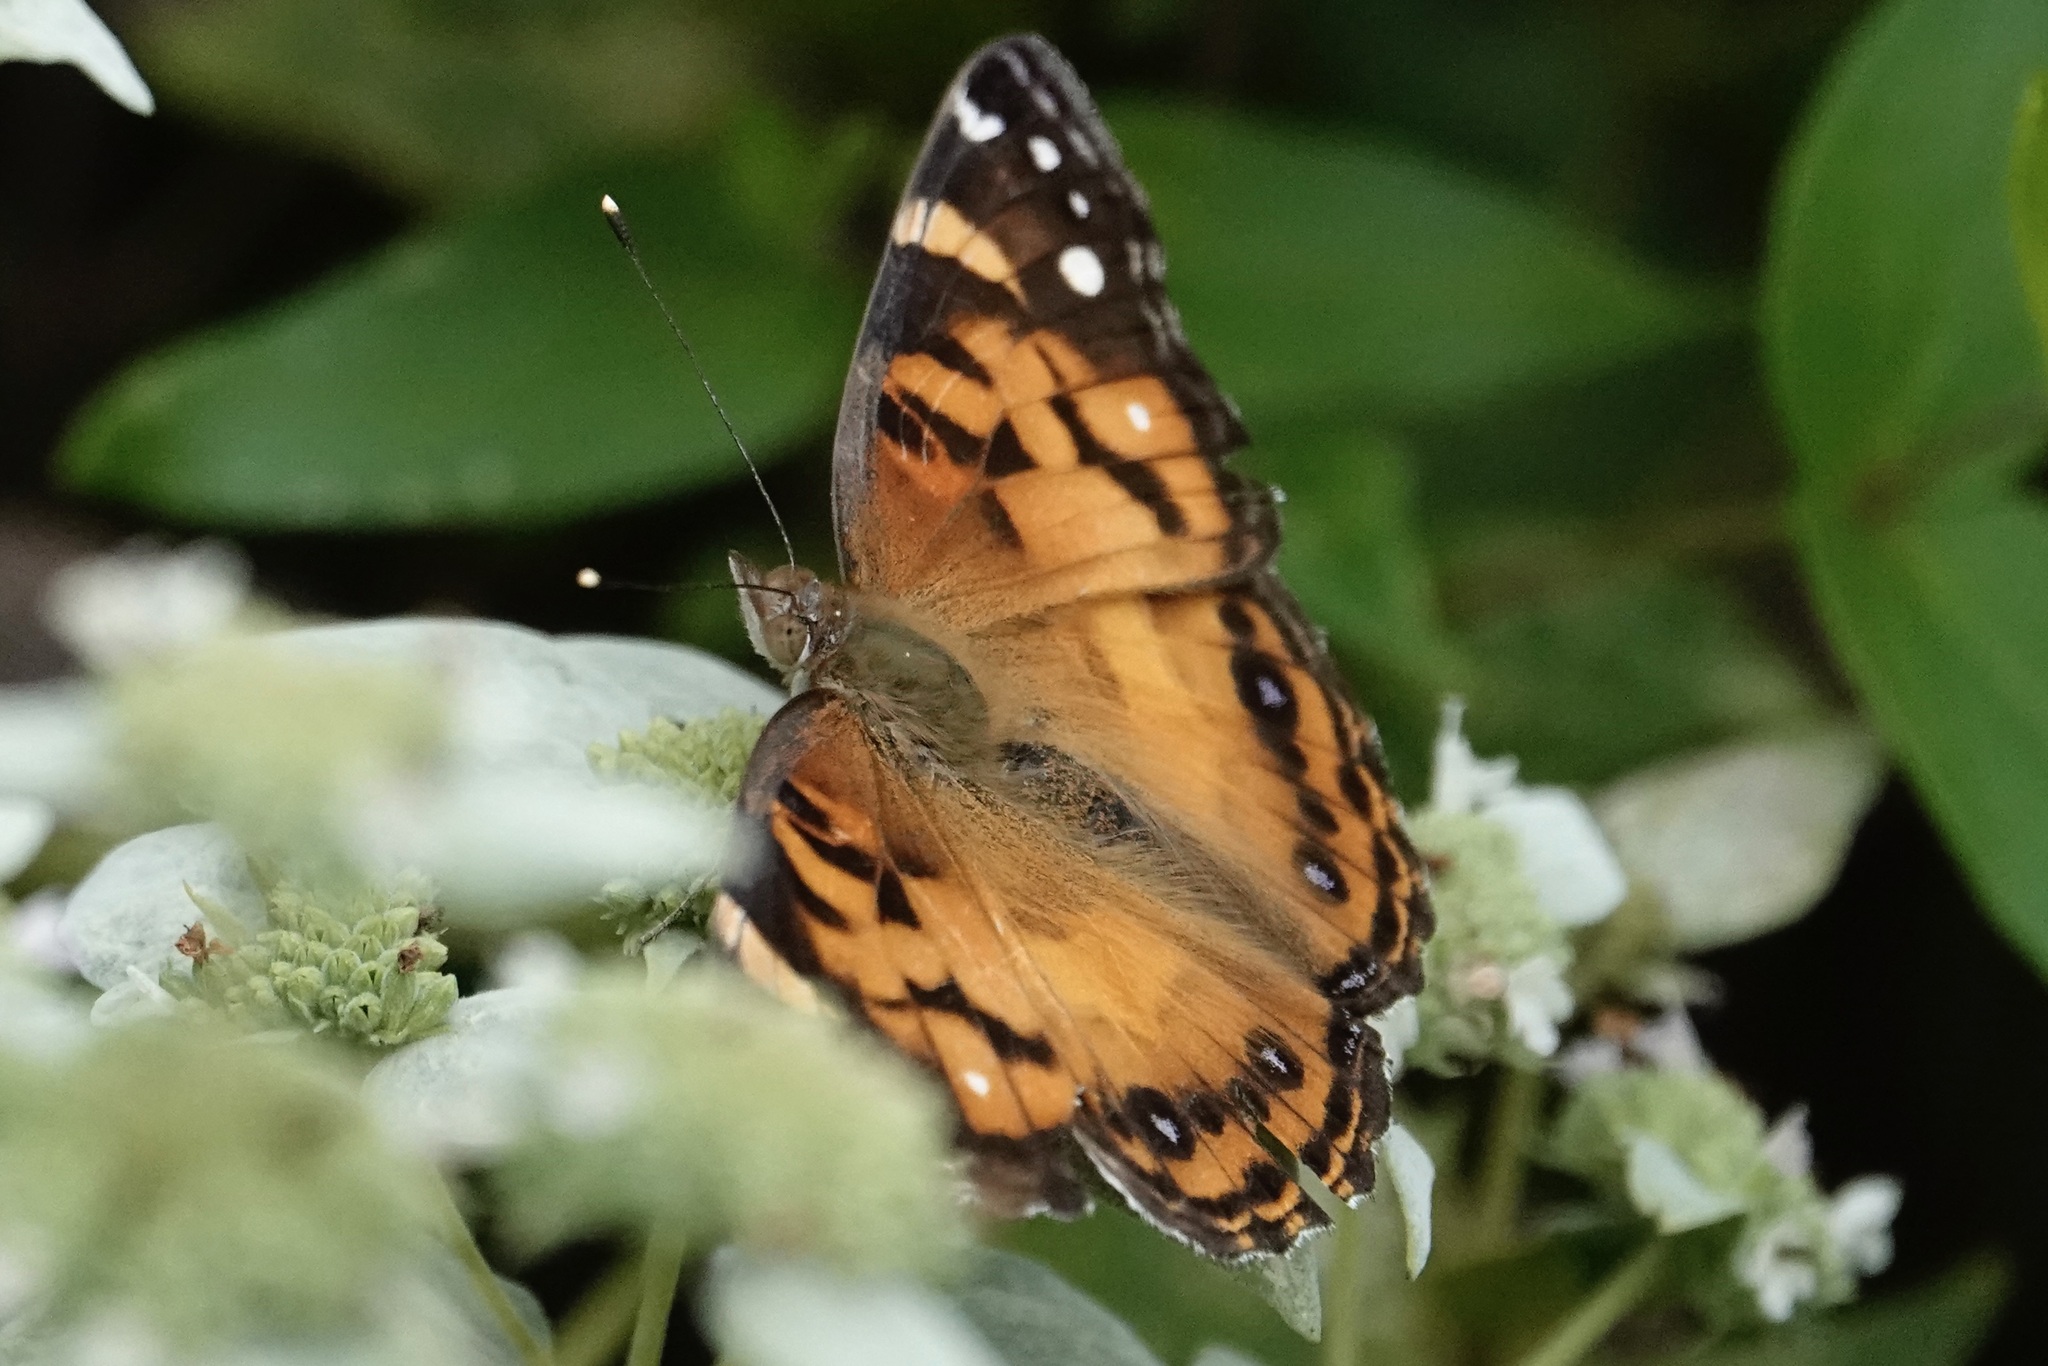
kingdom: Animalia
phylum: Arthropoda
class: Insecta
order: Lepidoptera
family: Nymphalidae
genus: Vanessa
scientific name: Vanessa virginiensis
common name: American lady
